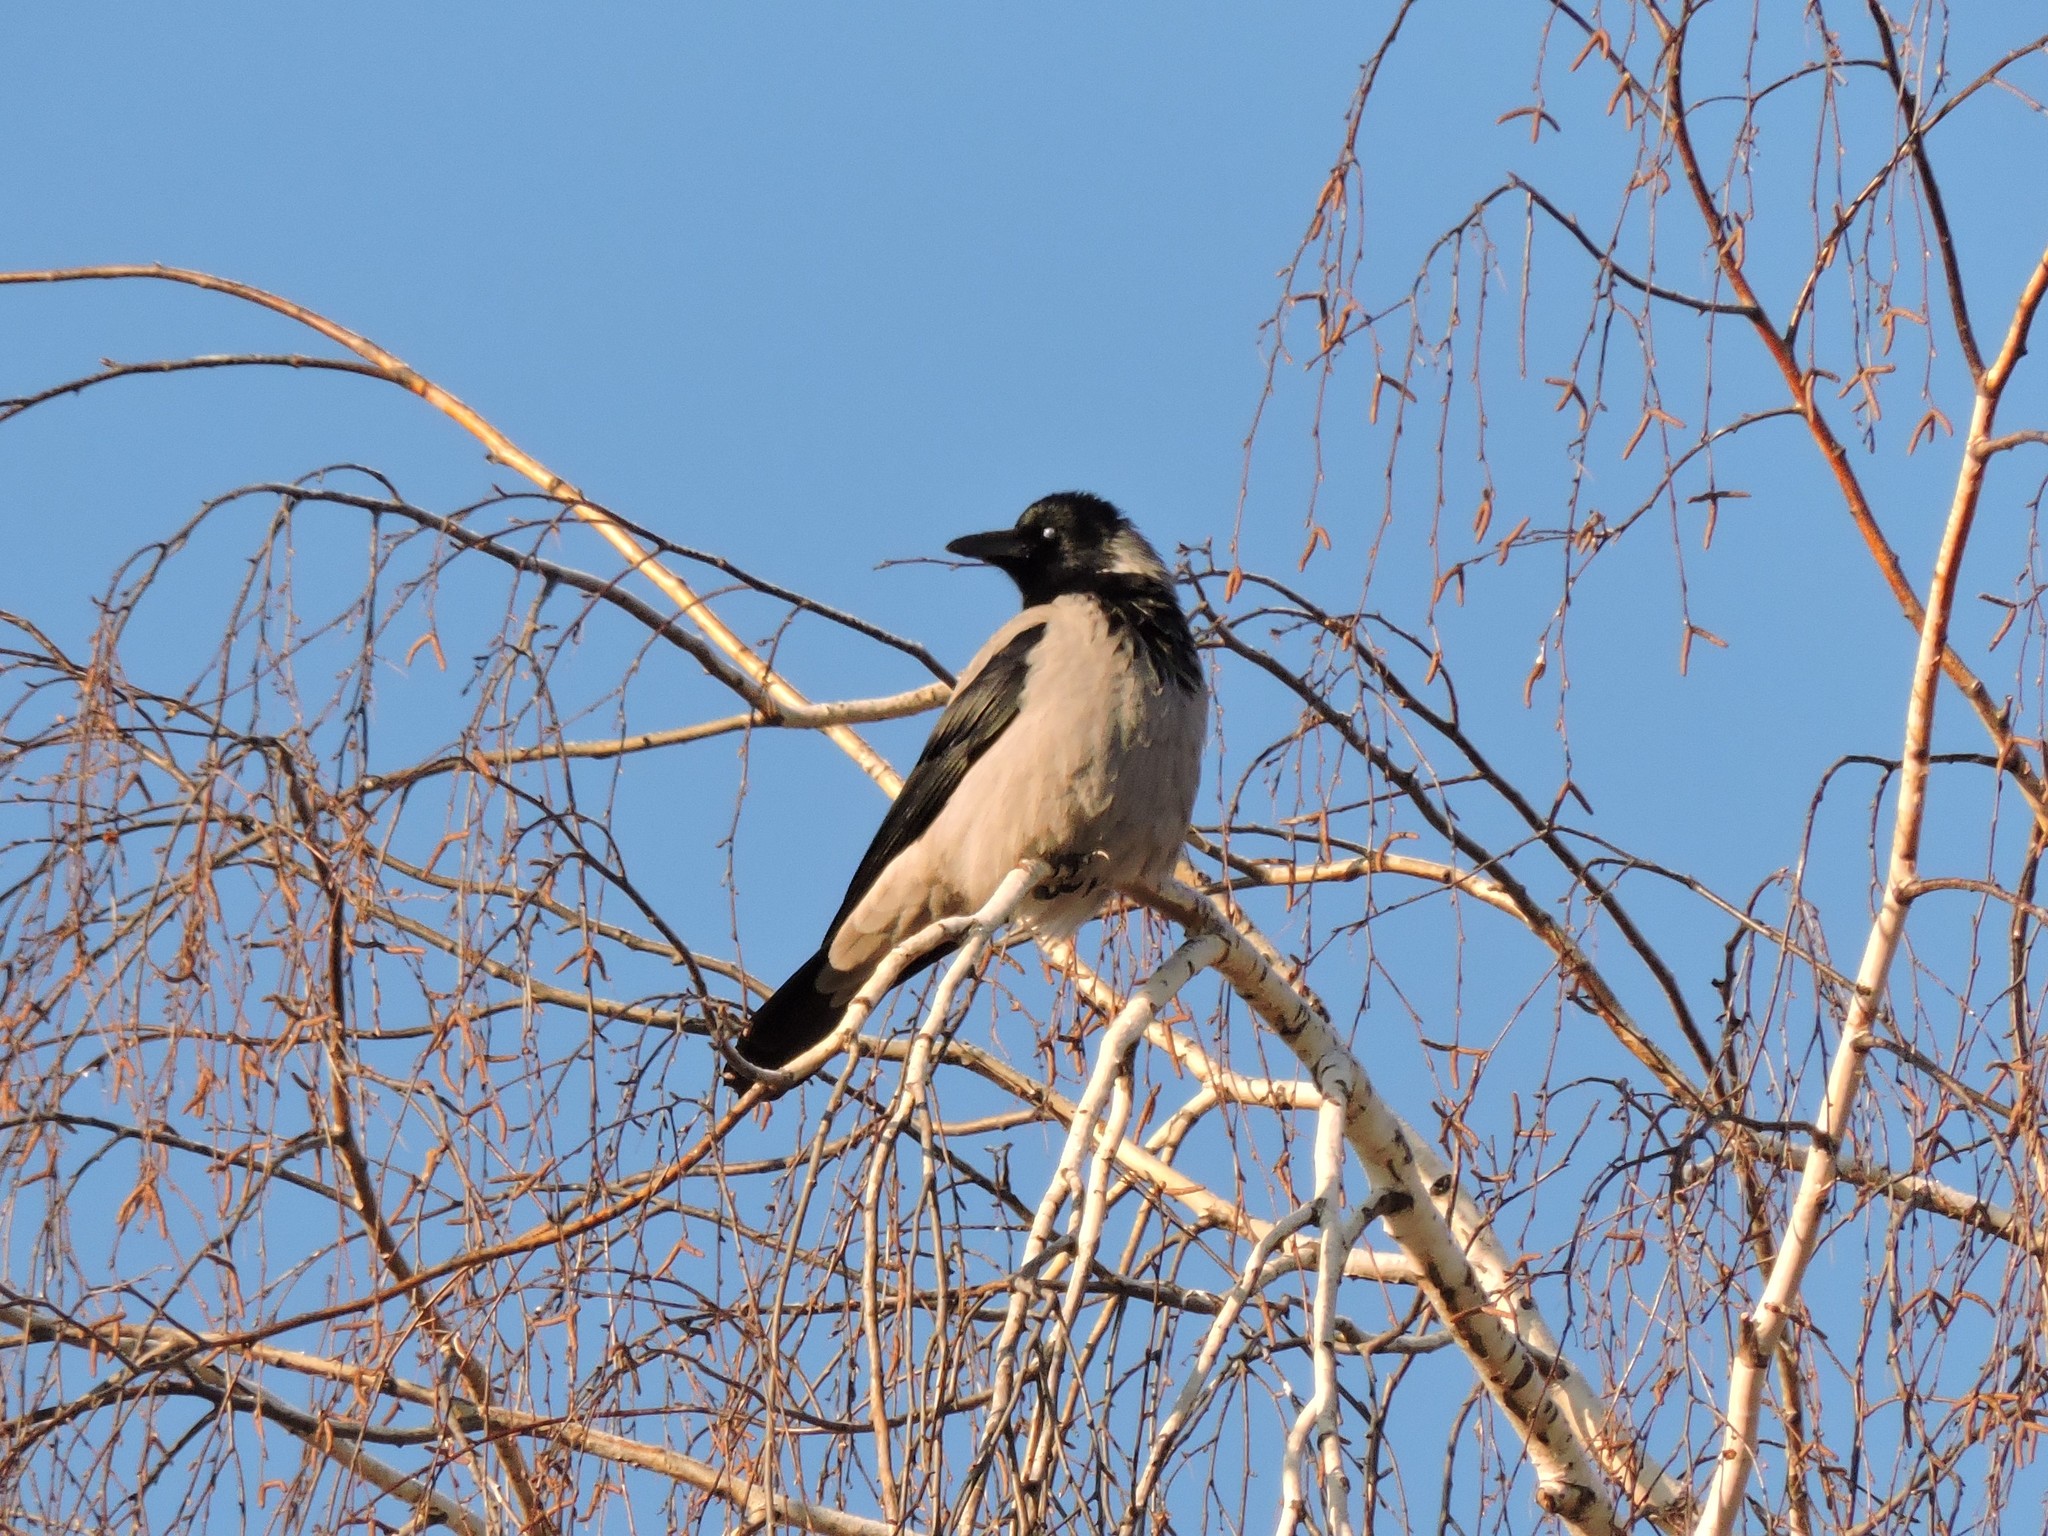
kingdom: Animalia
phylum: Chordata
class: Aves
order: Passeriformes
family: Corvidae
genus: Corvus
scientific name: Corvus cornix
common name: Hooded crow
